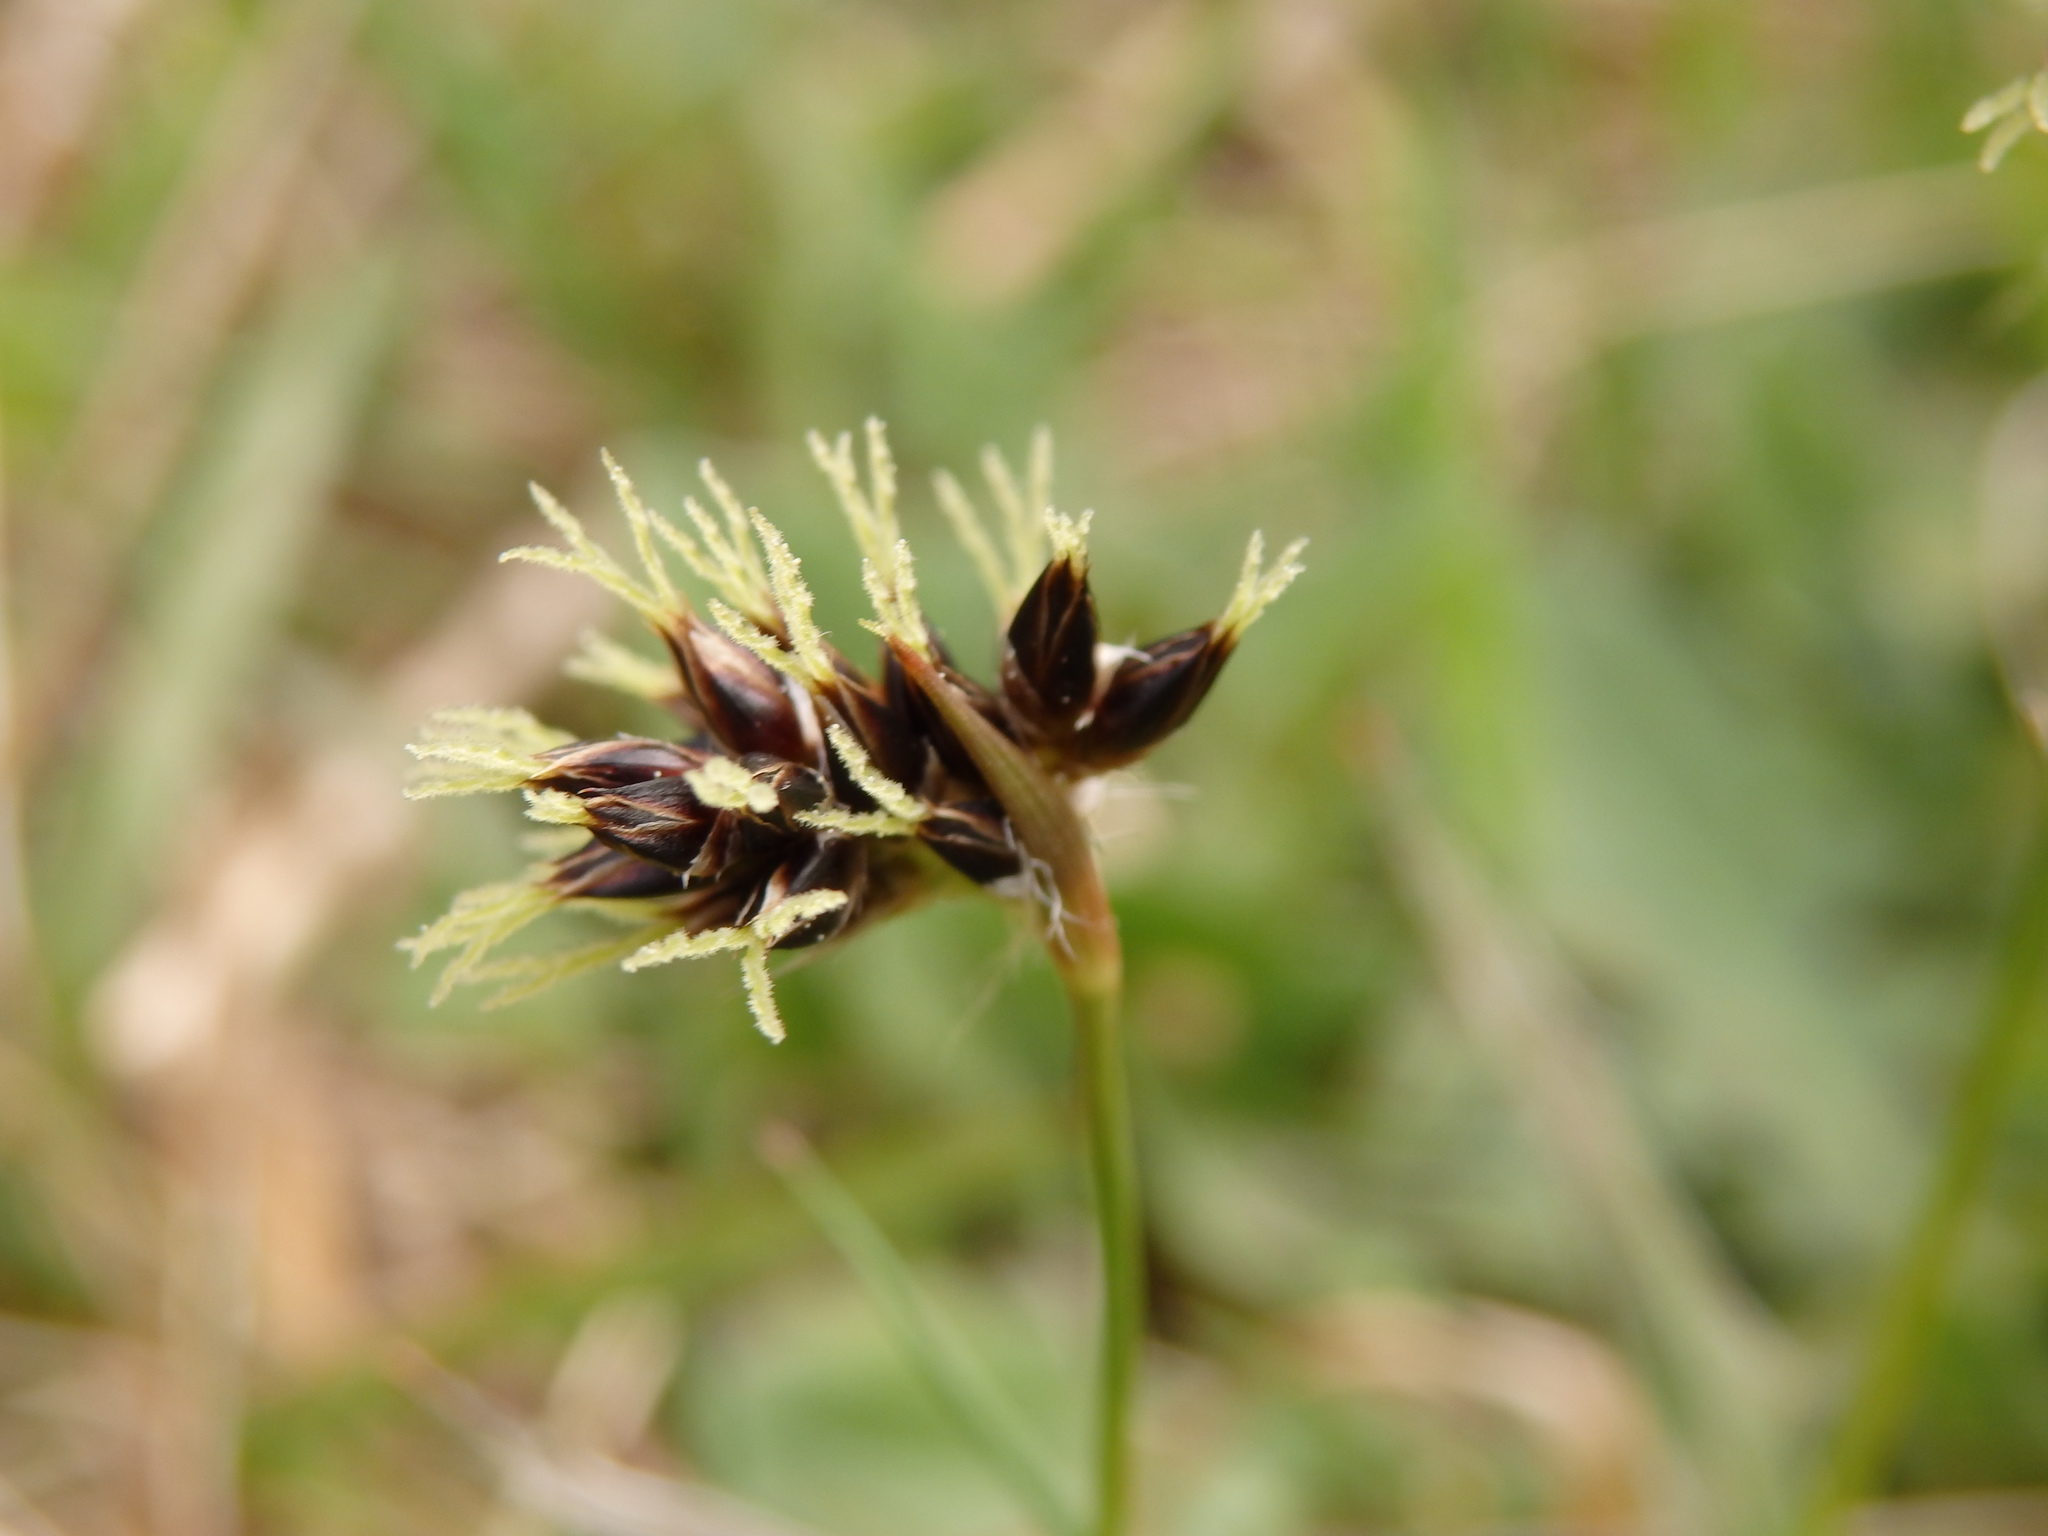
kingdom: Plantae
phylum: Tracheophyta
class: Liliopsida
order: Poales
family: Juncaceae
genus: Luzula
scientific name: Luzula campestris
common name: Field wood-rush
